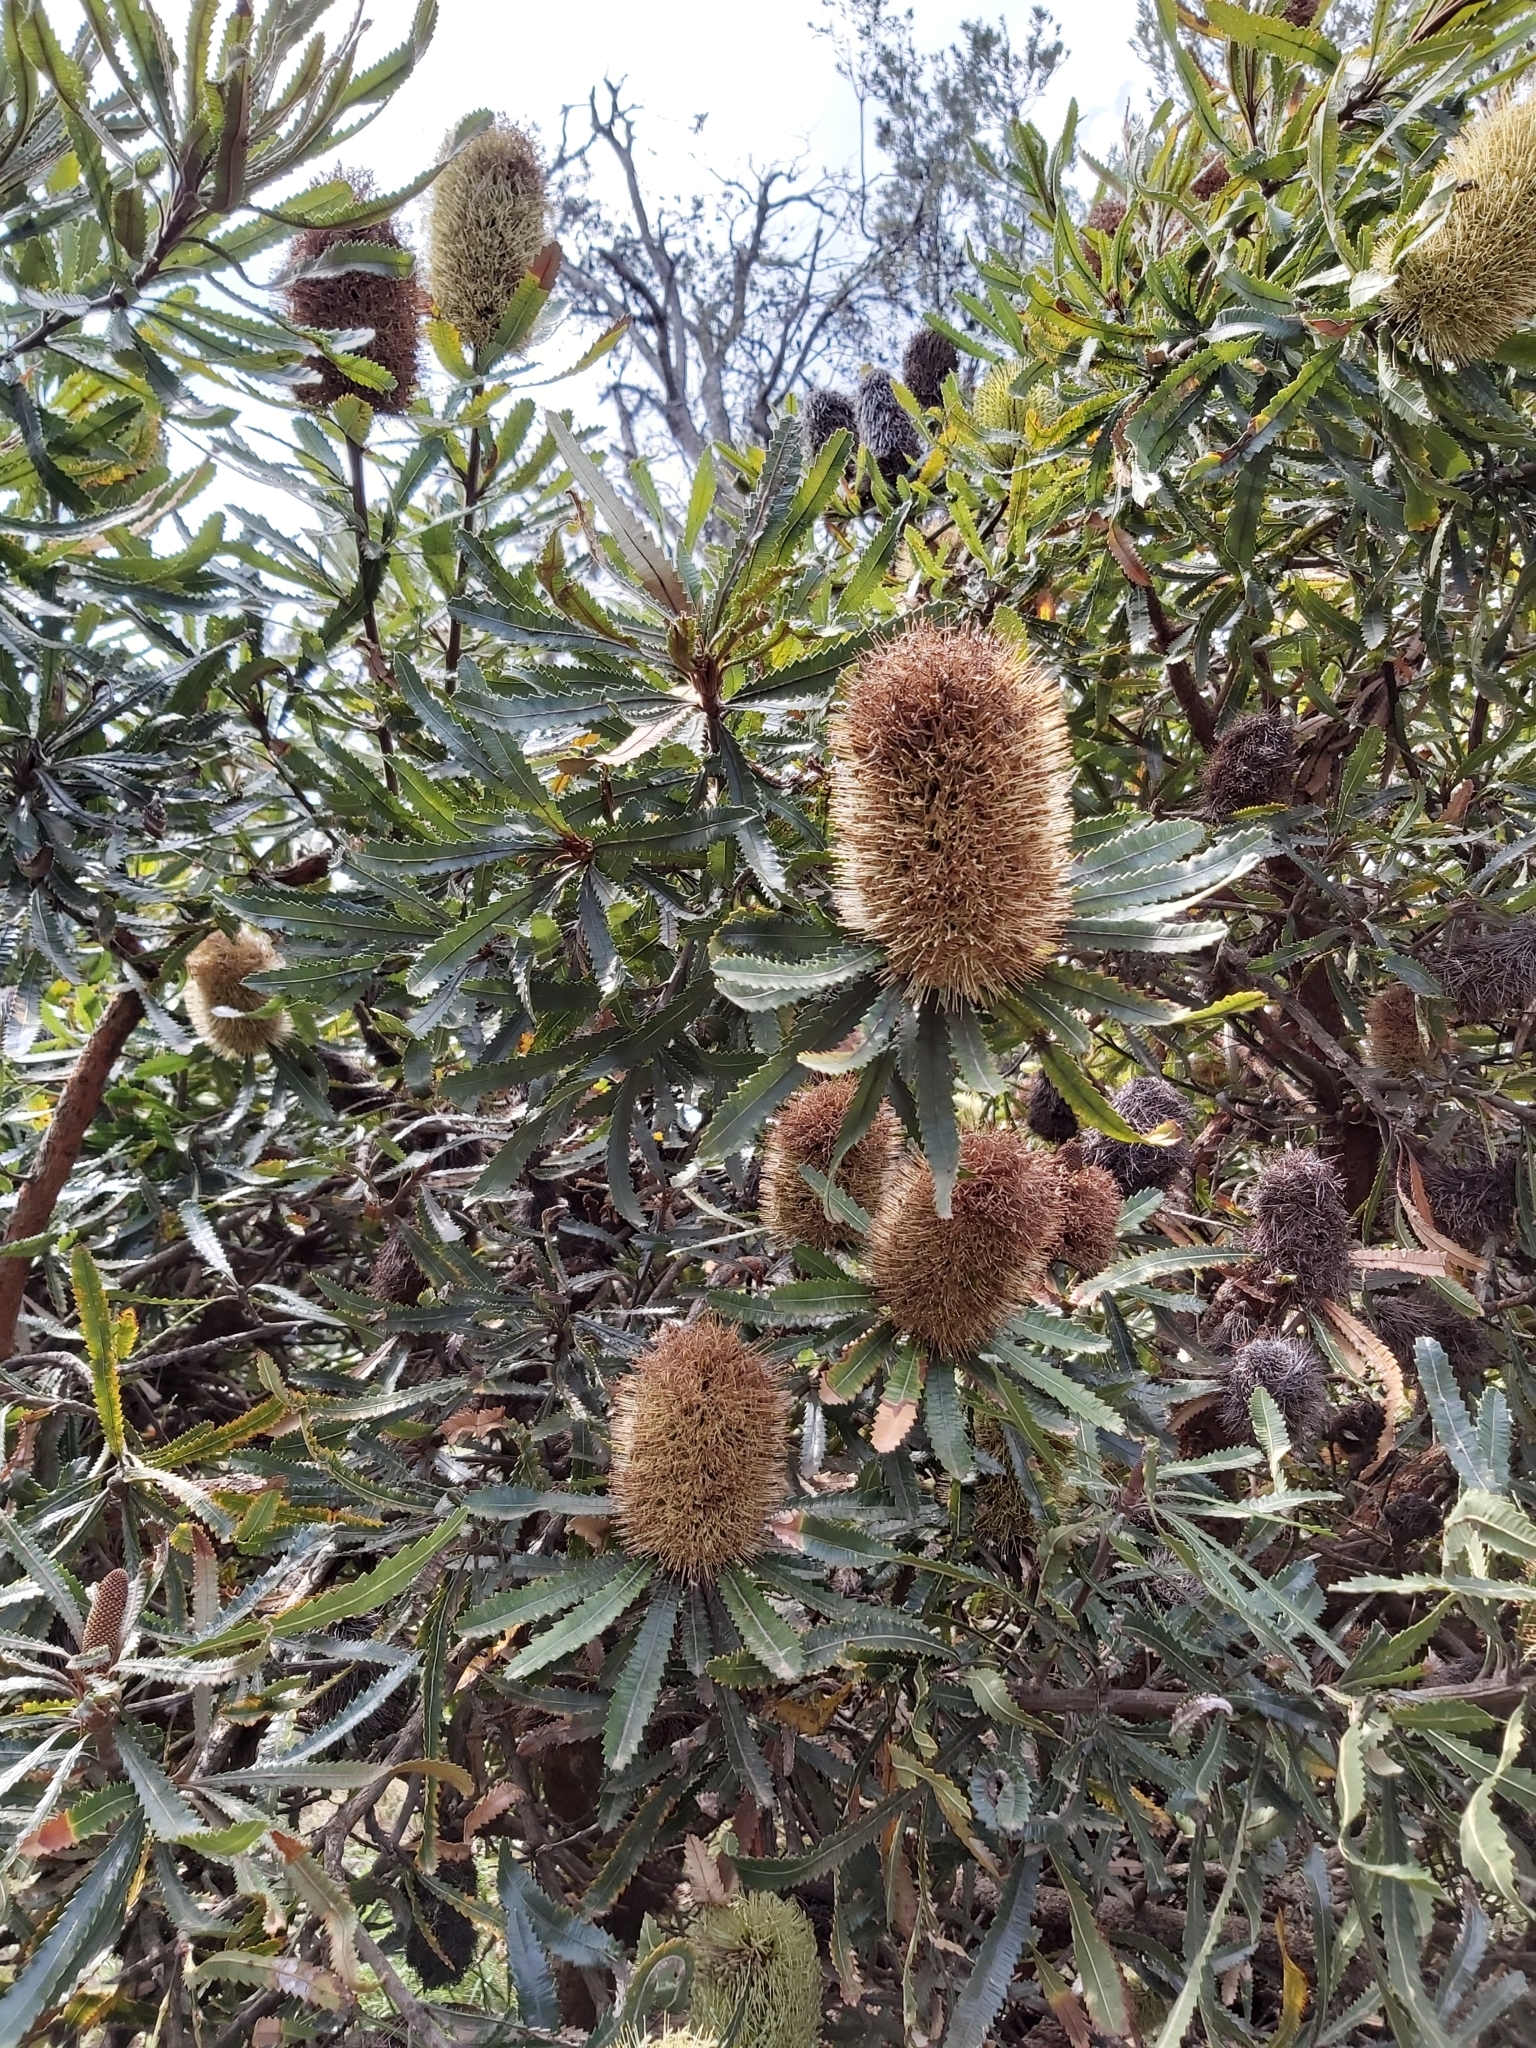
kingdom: Plantae
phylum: Tracheophyta
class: Magnoliopsida
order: Proteales
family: Proteaceae
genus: Banksia
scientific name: Banksia aemula
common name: Wallum banksia
